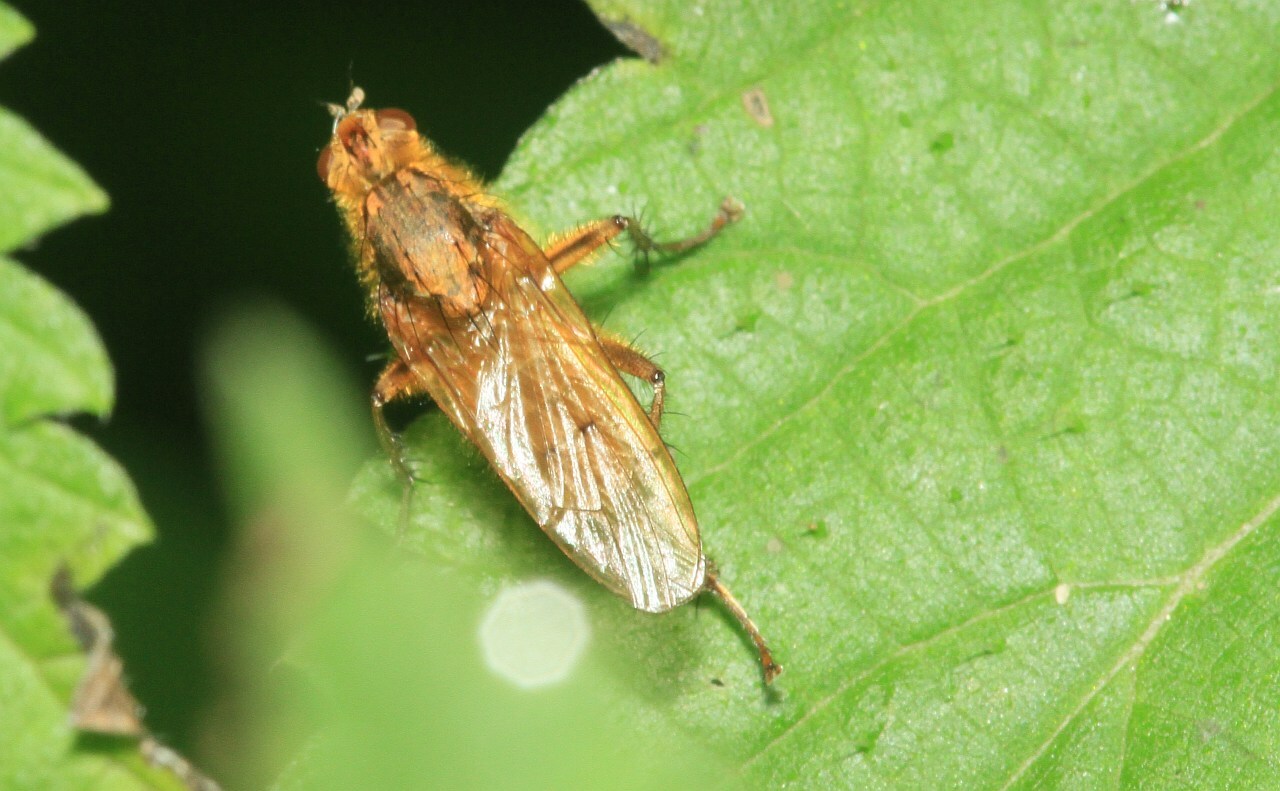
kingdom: Animalia
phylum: Arthropoda
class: Insecta
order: Diptera
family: Scathophagidae
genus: Scathophaga
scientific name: Scathophaga stercoraria
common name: Yellow dung fly
